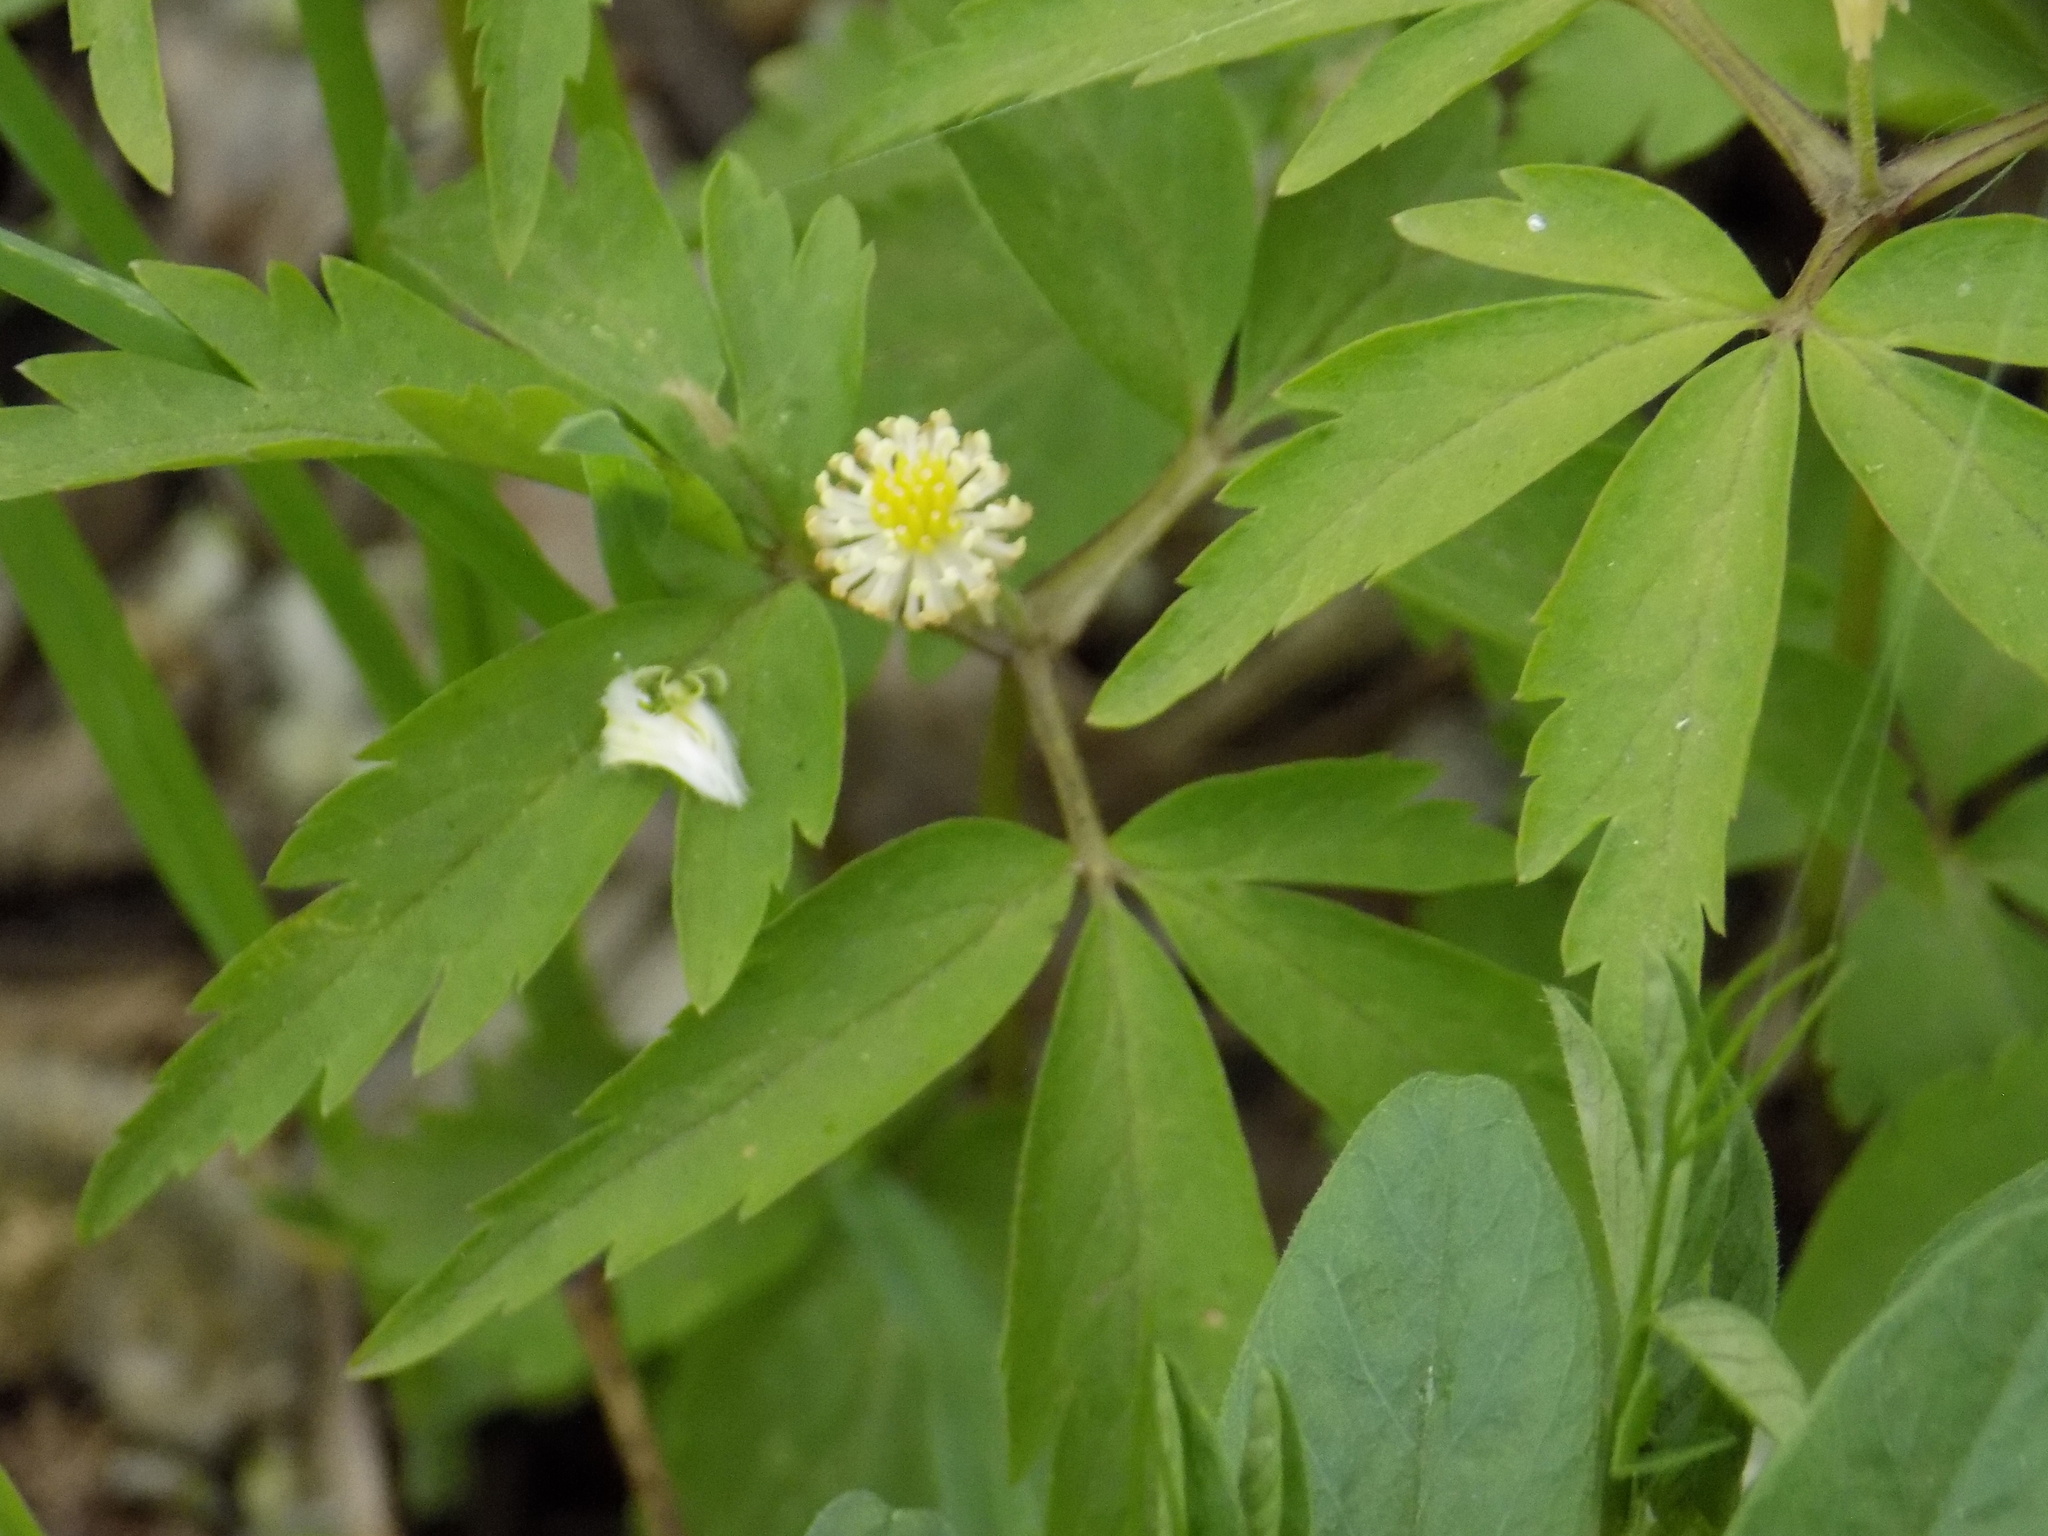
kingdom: Plantae
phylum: Tracheophyta
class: Magnoliopsida
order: Ranunculales
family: Ranunculaceae
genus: Anemone
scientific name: Anemone reflexa
